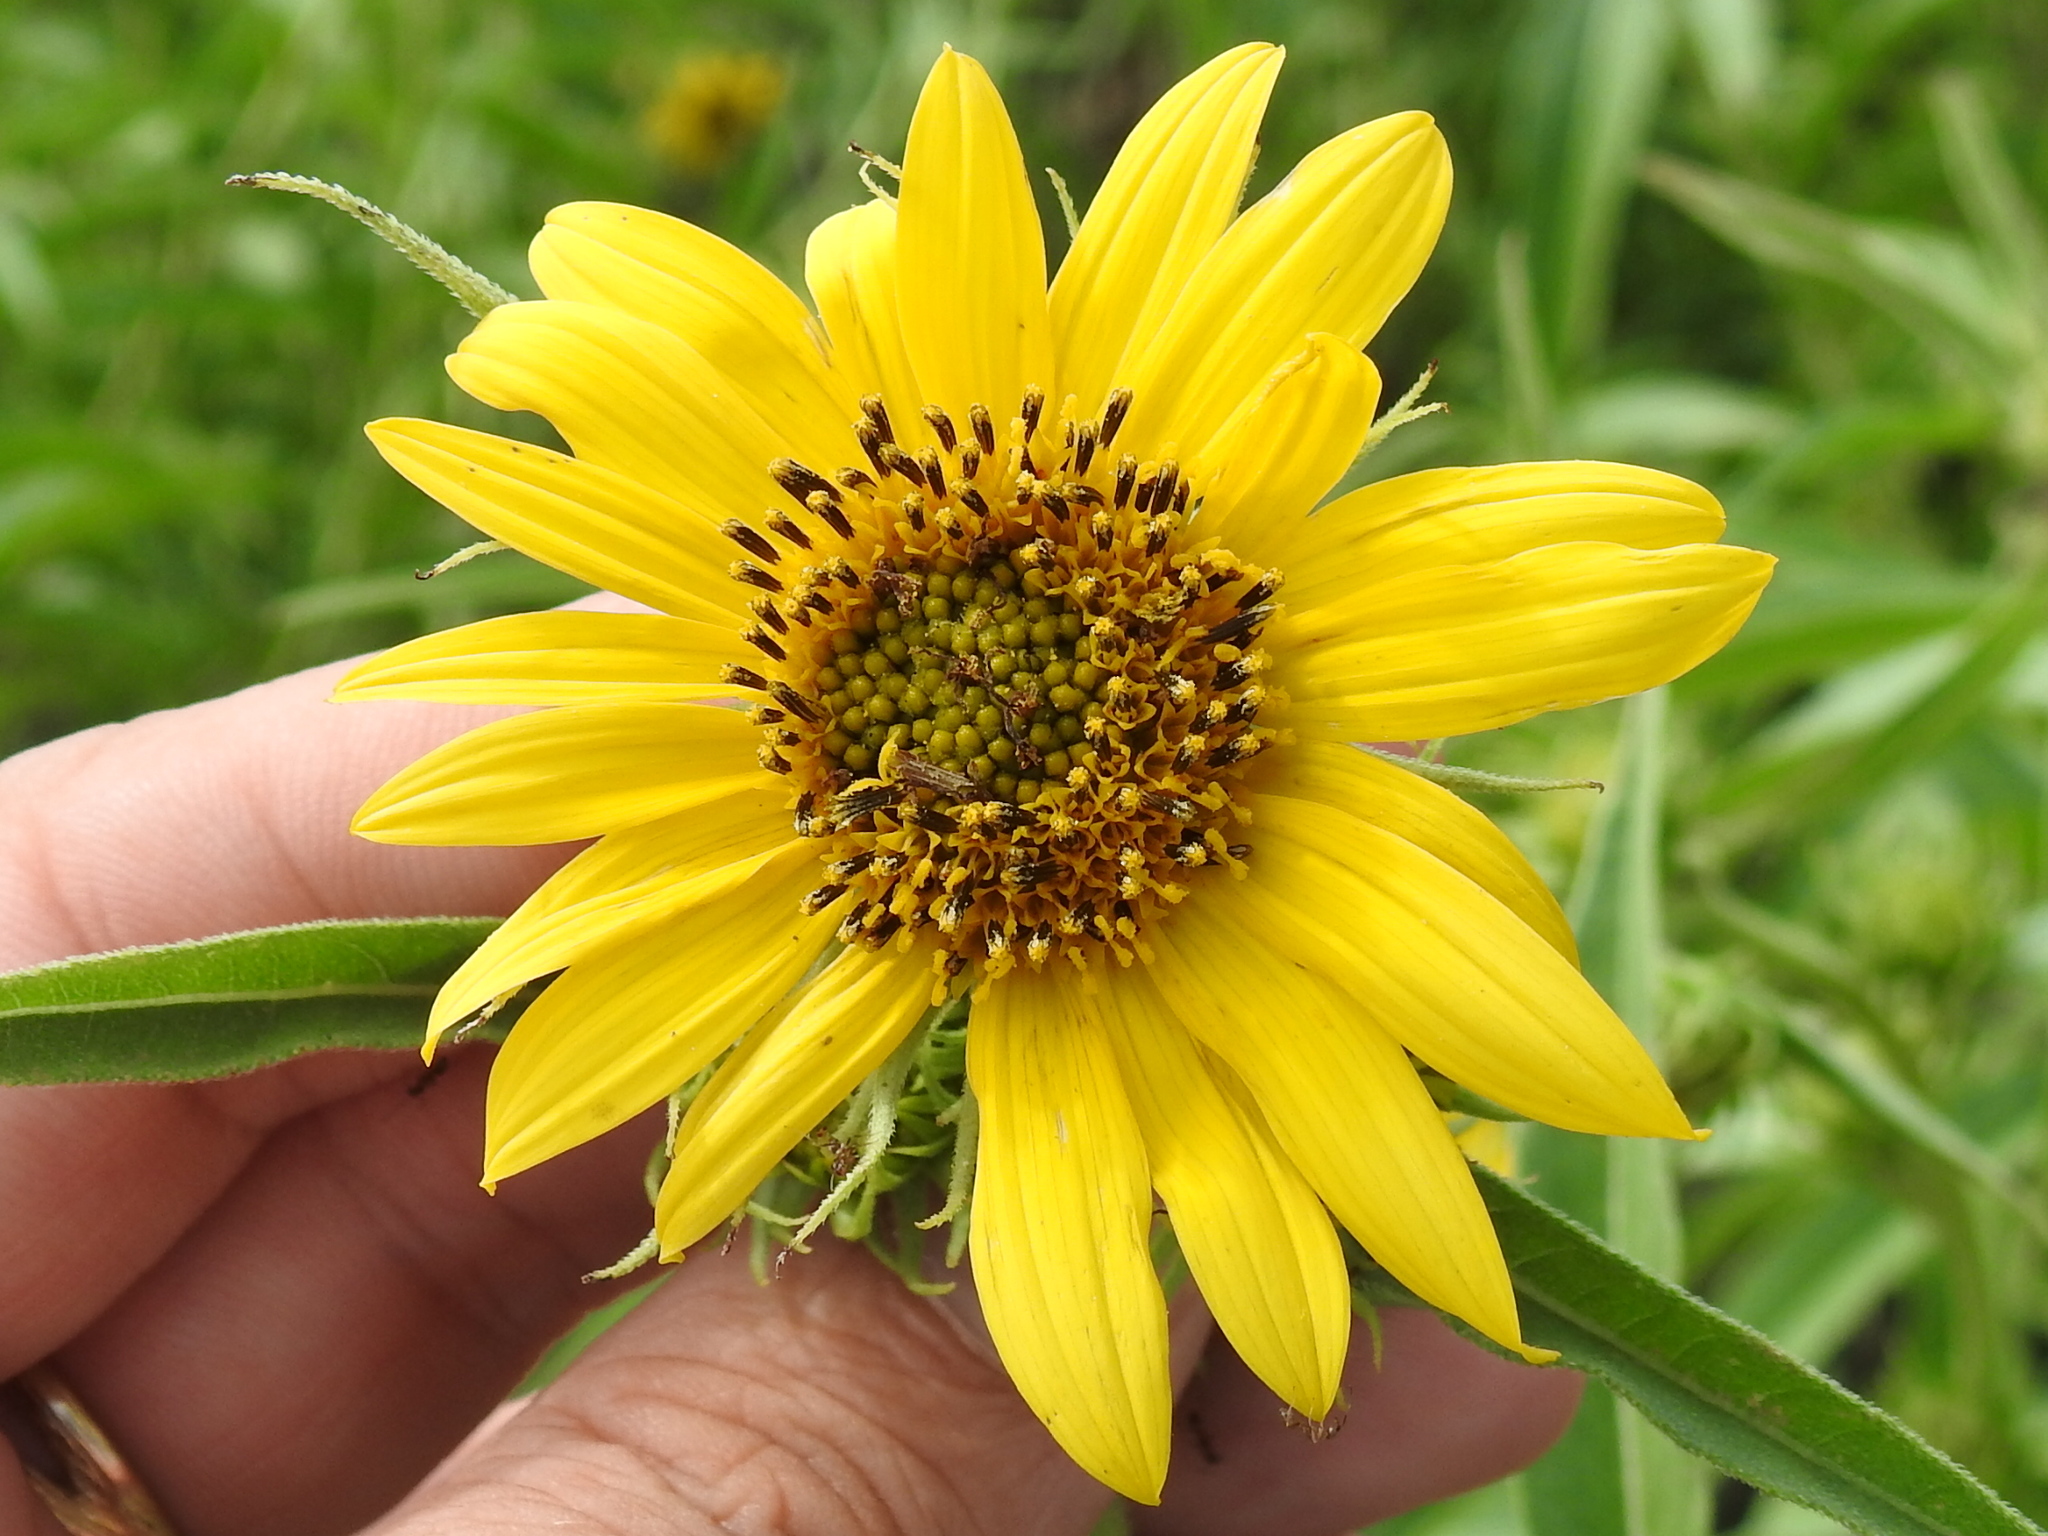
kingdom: Plantae
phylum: Tracheophyta
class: Magnoliopsida
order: Asterales
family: Asteraceae
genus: Helianthus
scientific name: Helianthus maximiliani
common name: Maximilian's sunflower
